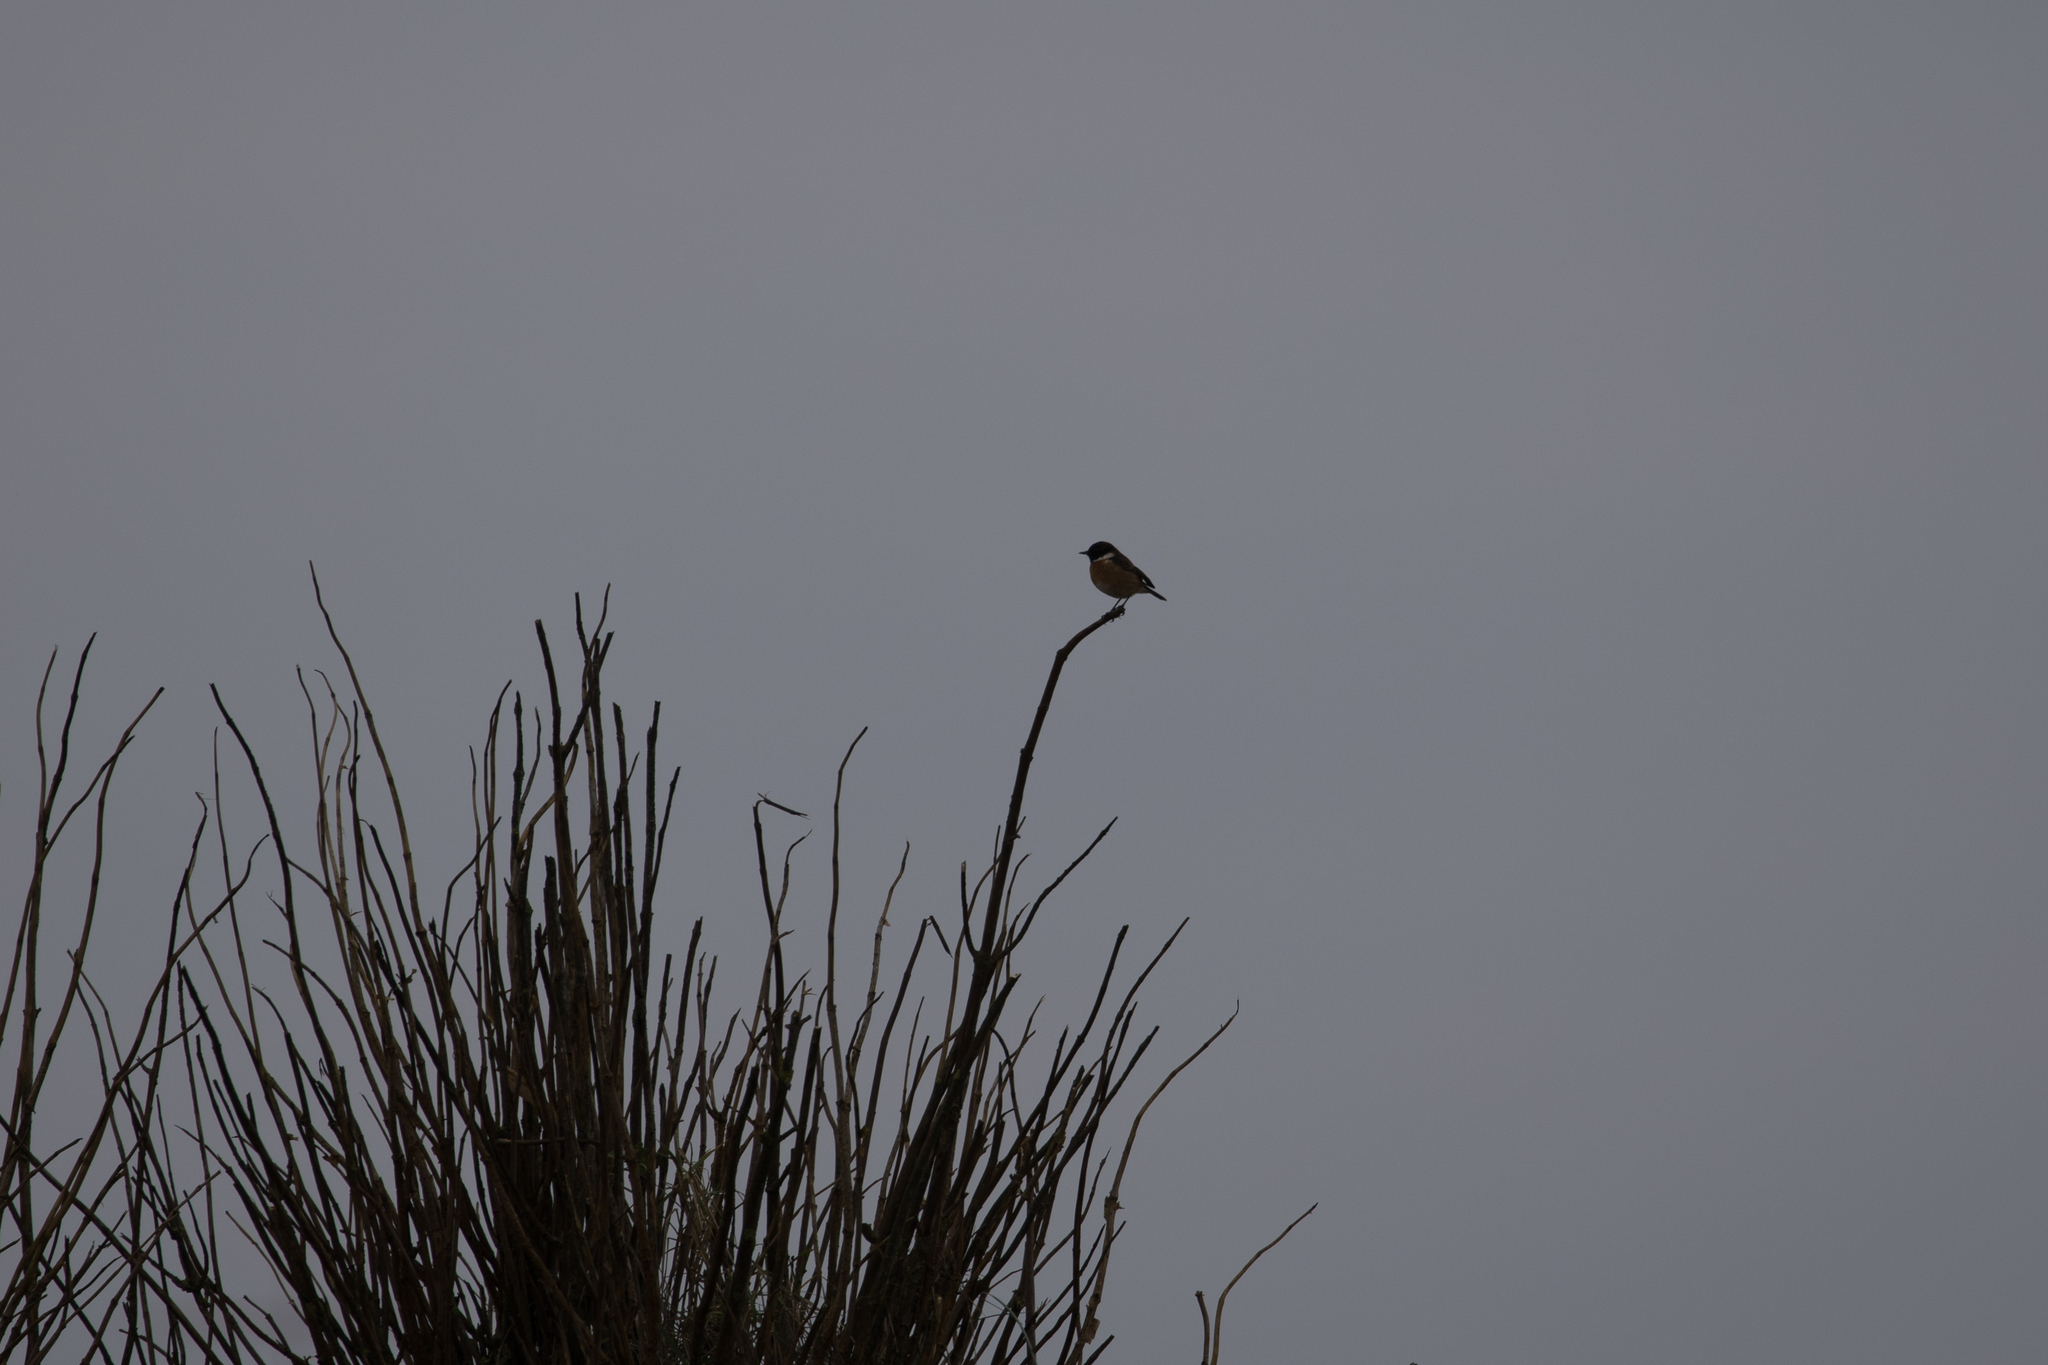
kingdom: Animalia
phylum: Chordata
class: Aves
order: Passeriformes
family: Muscicapidae
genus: Saxicola
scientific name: Saxicola rubicola
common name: European stonechat
